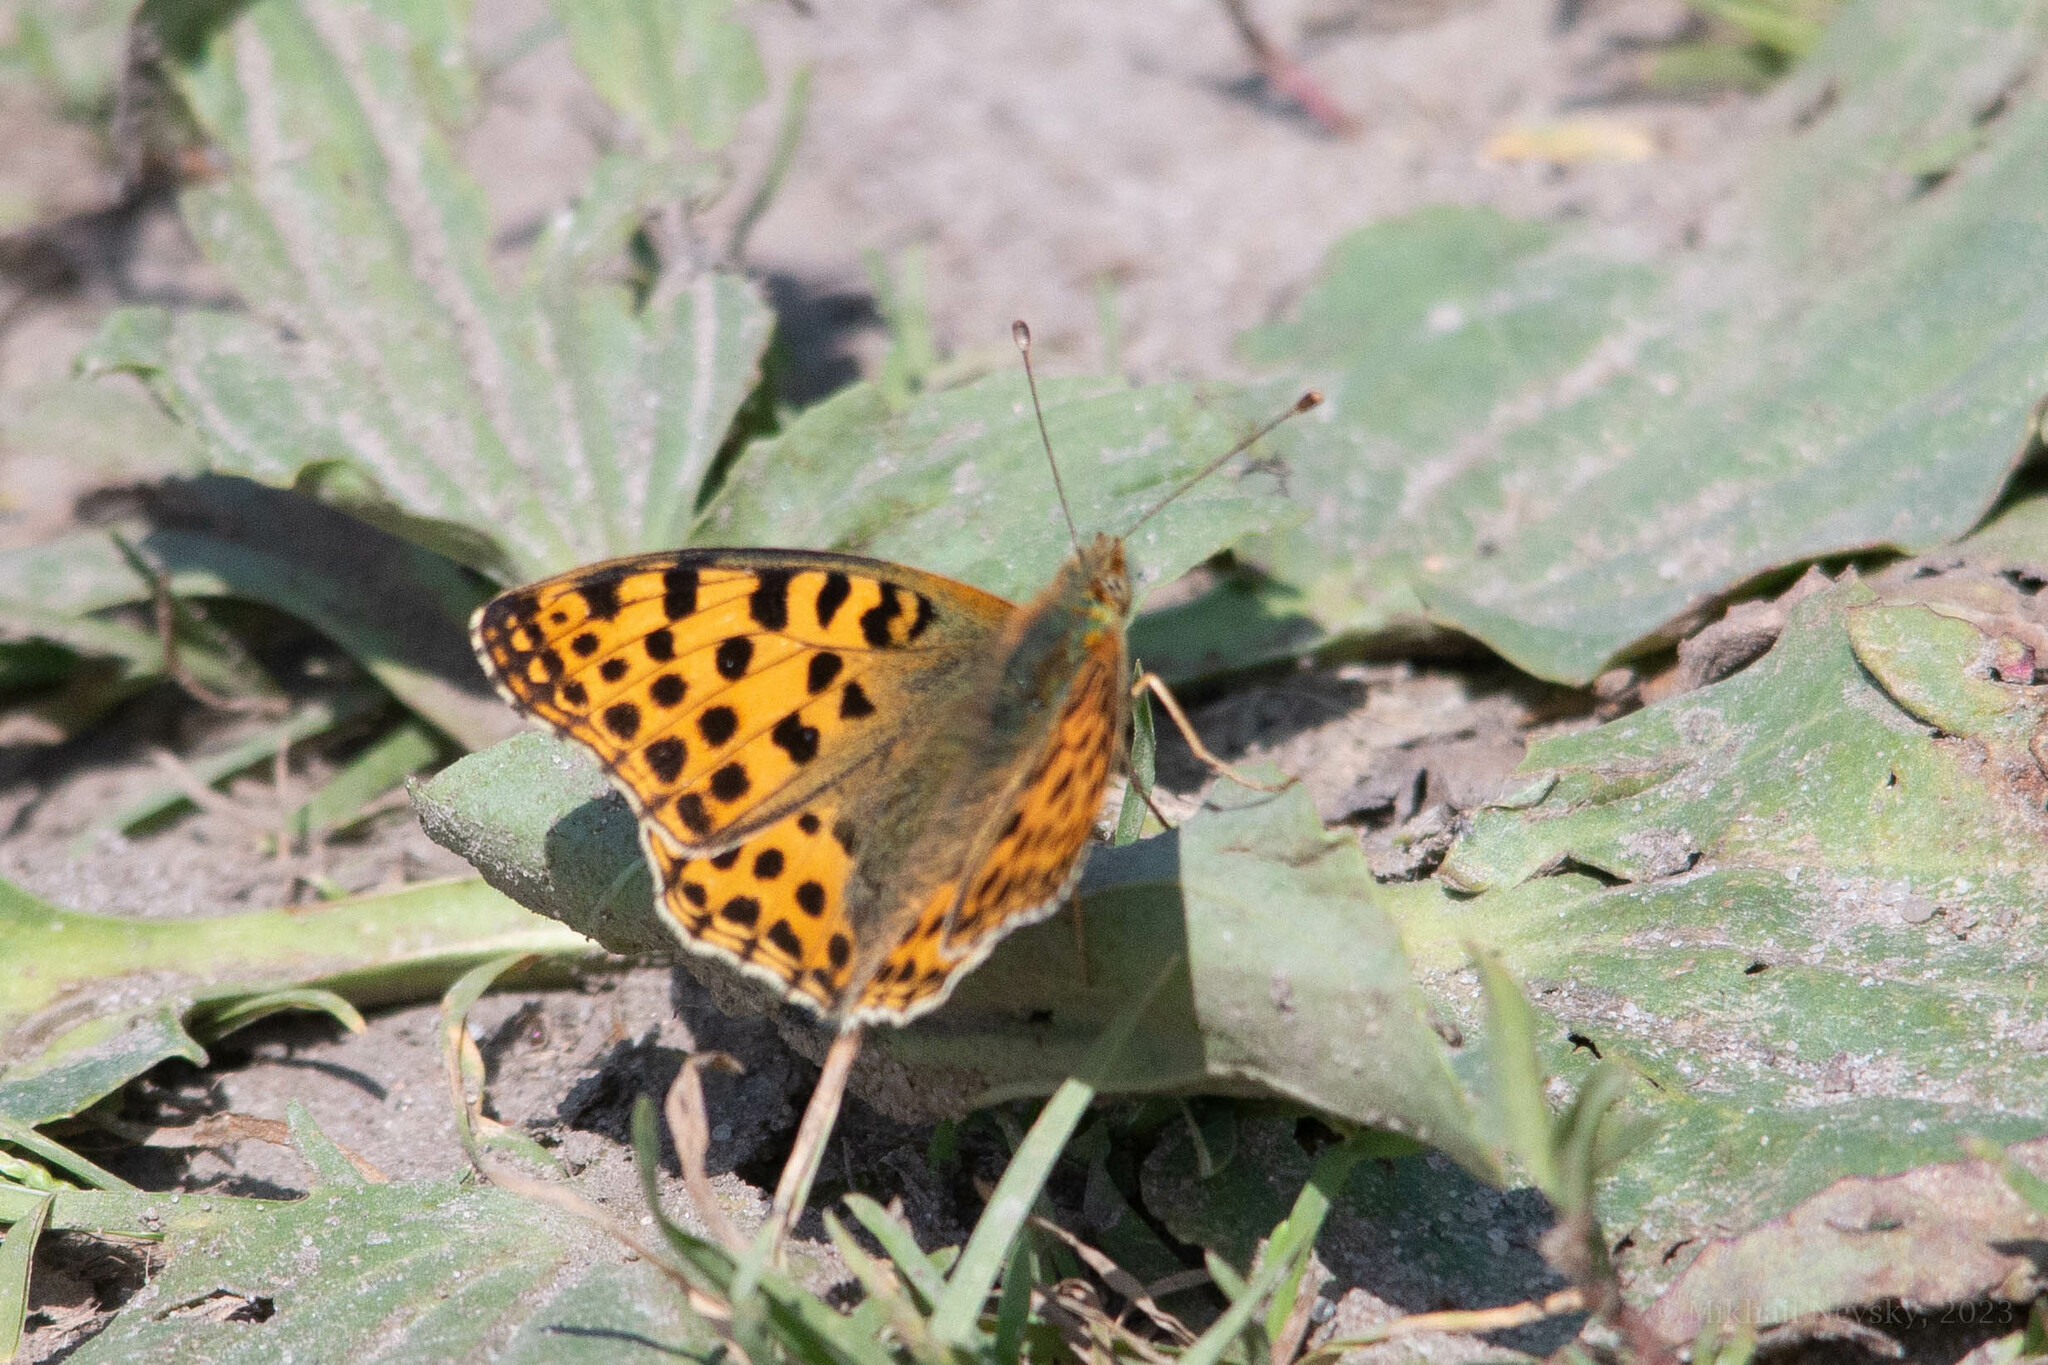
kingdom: Animalia
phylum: Arthropoda
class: Insecta
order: Lepidoptera
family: Nymphalidae
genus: Issoria
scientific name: Issoria lathonia
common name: Queen of spain fritillary
